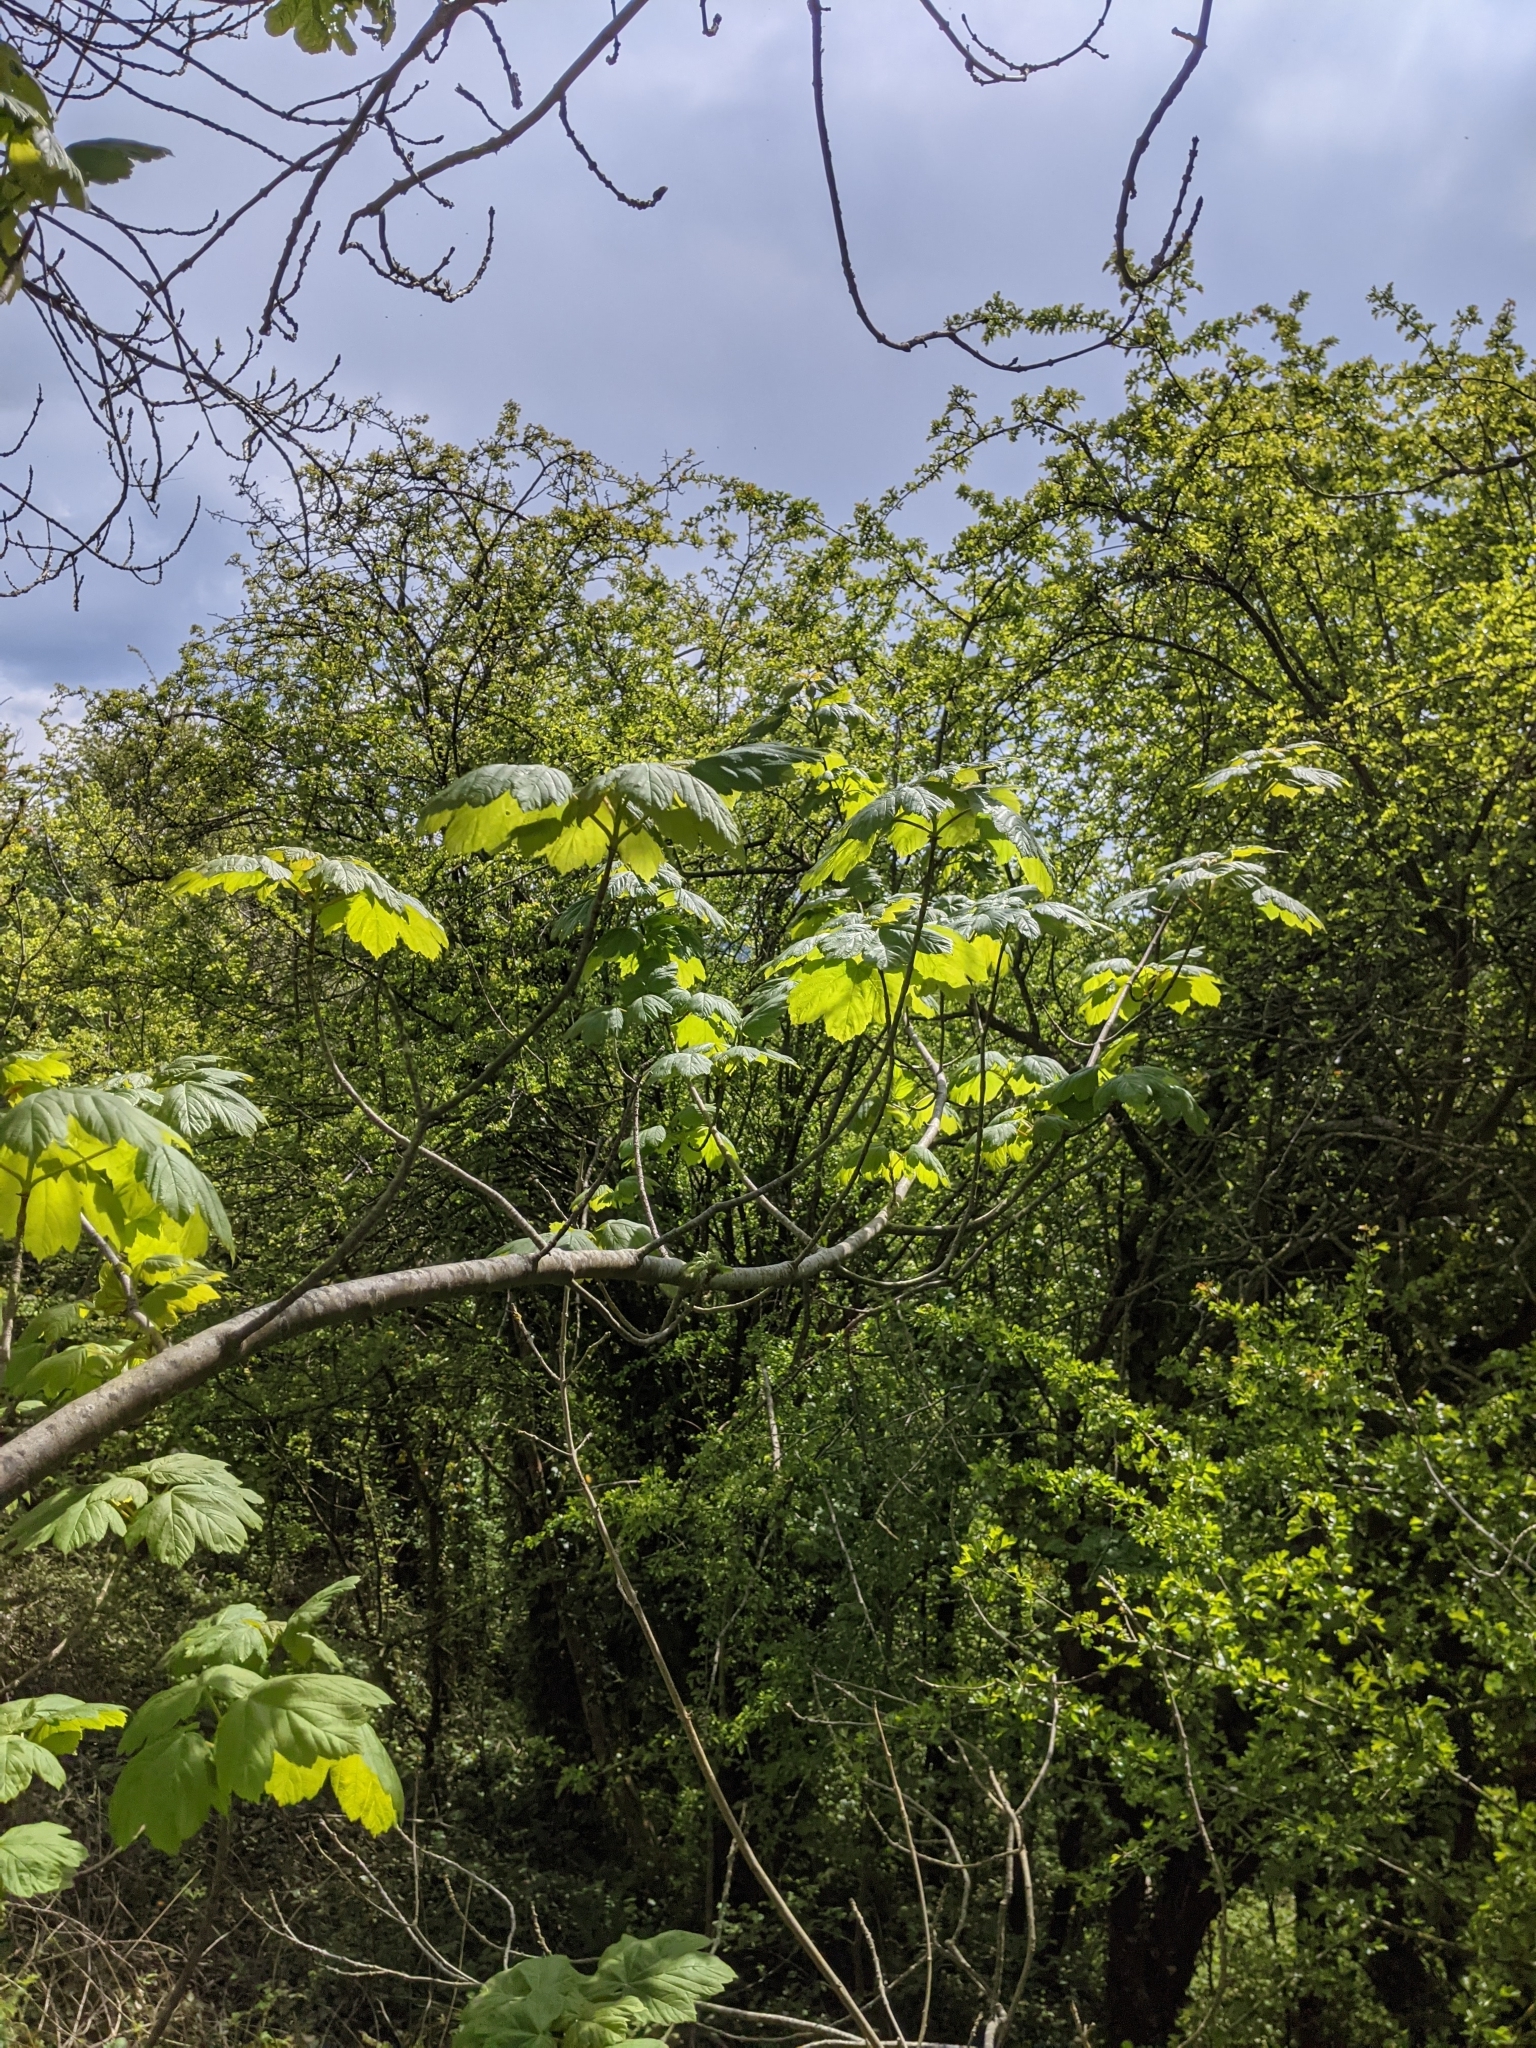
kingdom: Plantae
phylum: Tracheophyta
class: Magnoliopsida
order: Sapindales
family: Sapindaceae
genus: Acer
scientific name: Acer pseudoplatanus
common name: Sycamore
